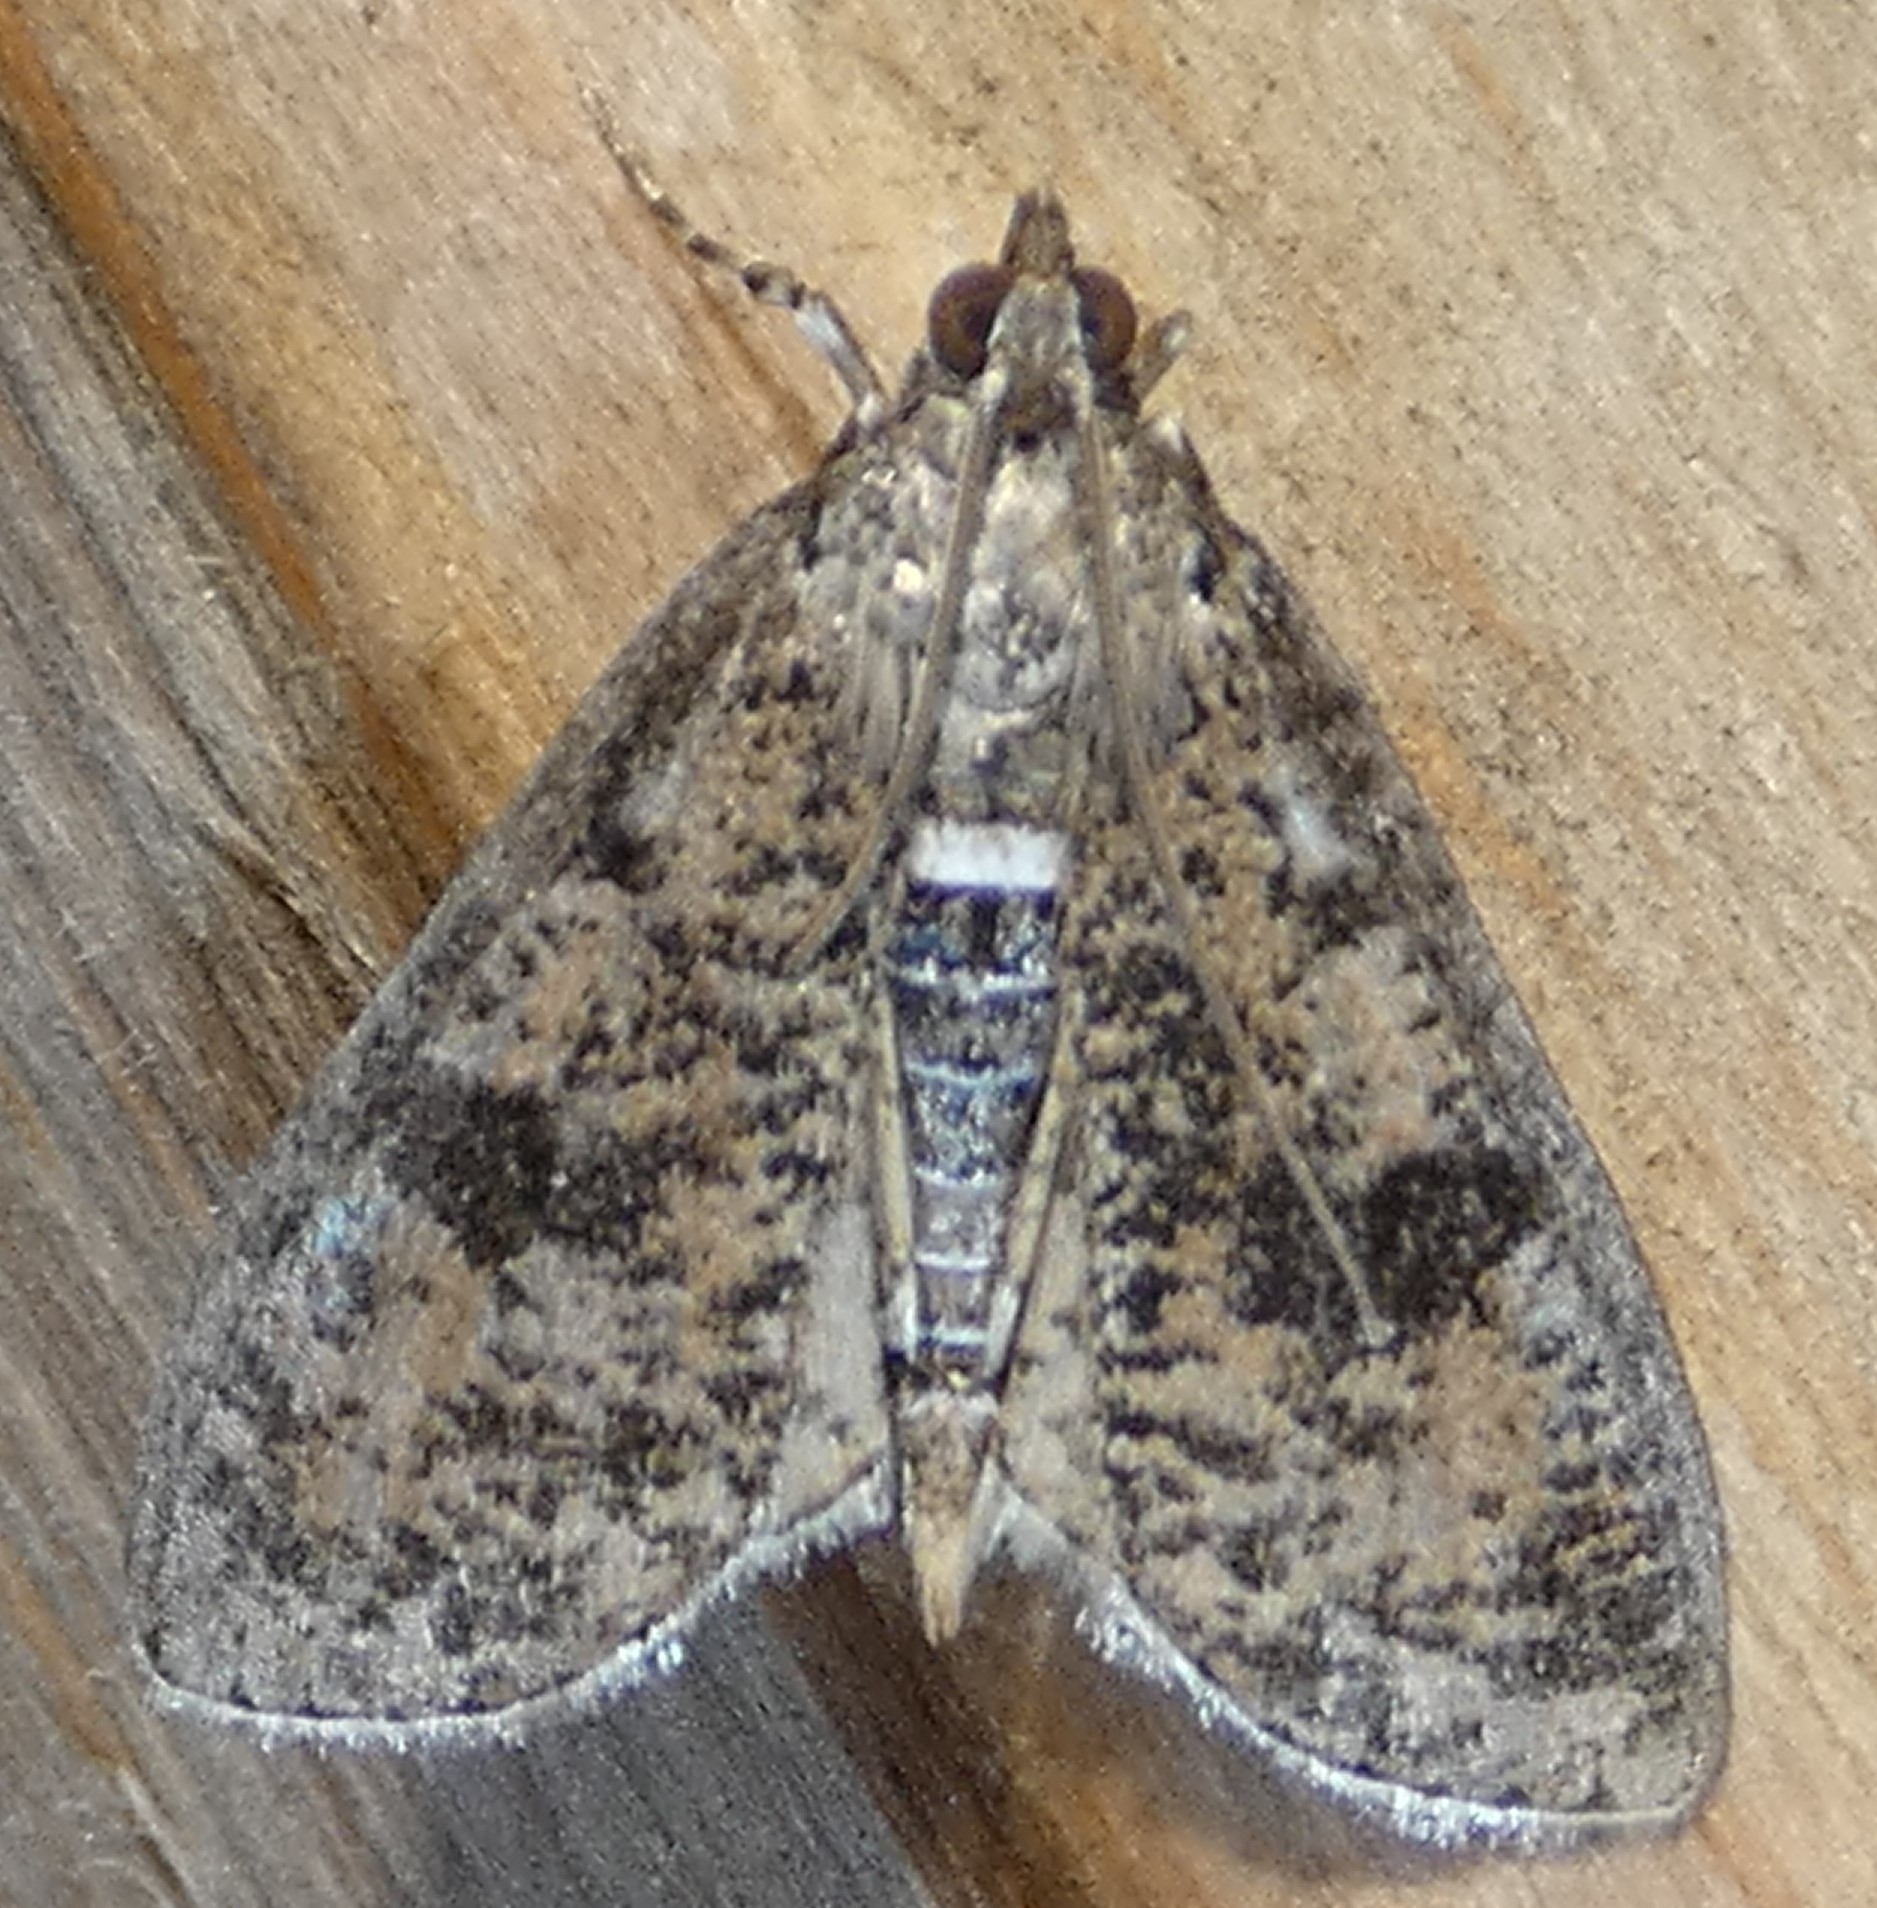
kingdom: Animalia
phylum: Arthropoda
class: Insecta
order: Lepidoptera
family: Crambidae
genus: Palpita
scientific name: Palpita magniferalis
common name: Splendid palpita moth
